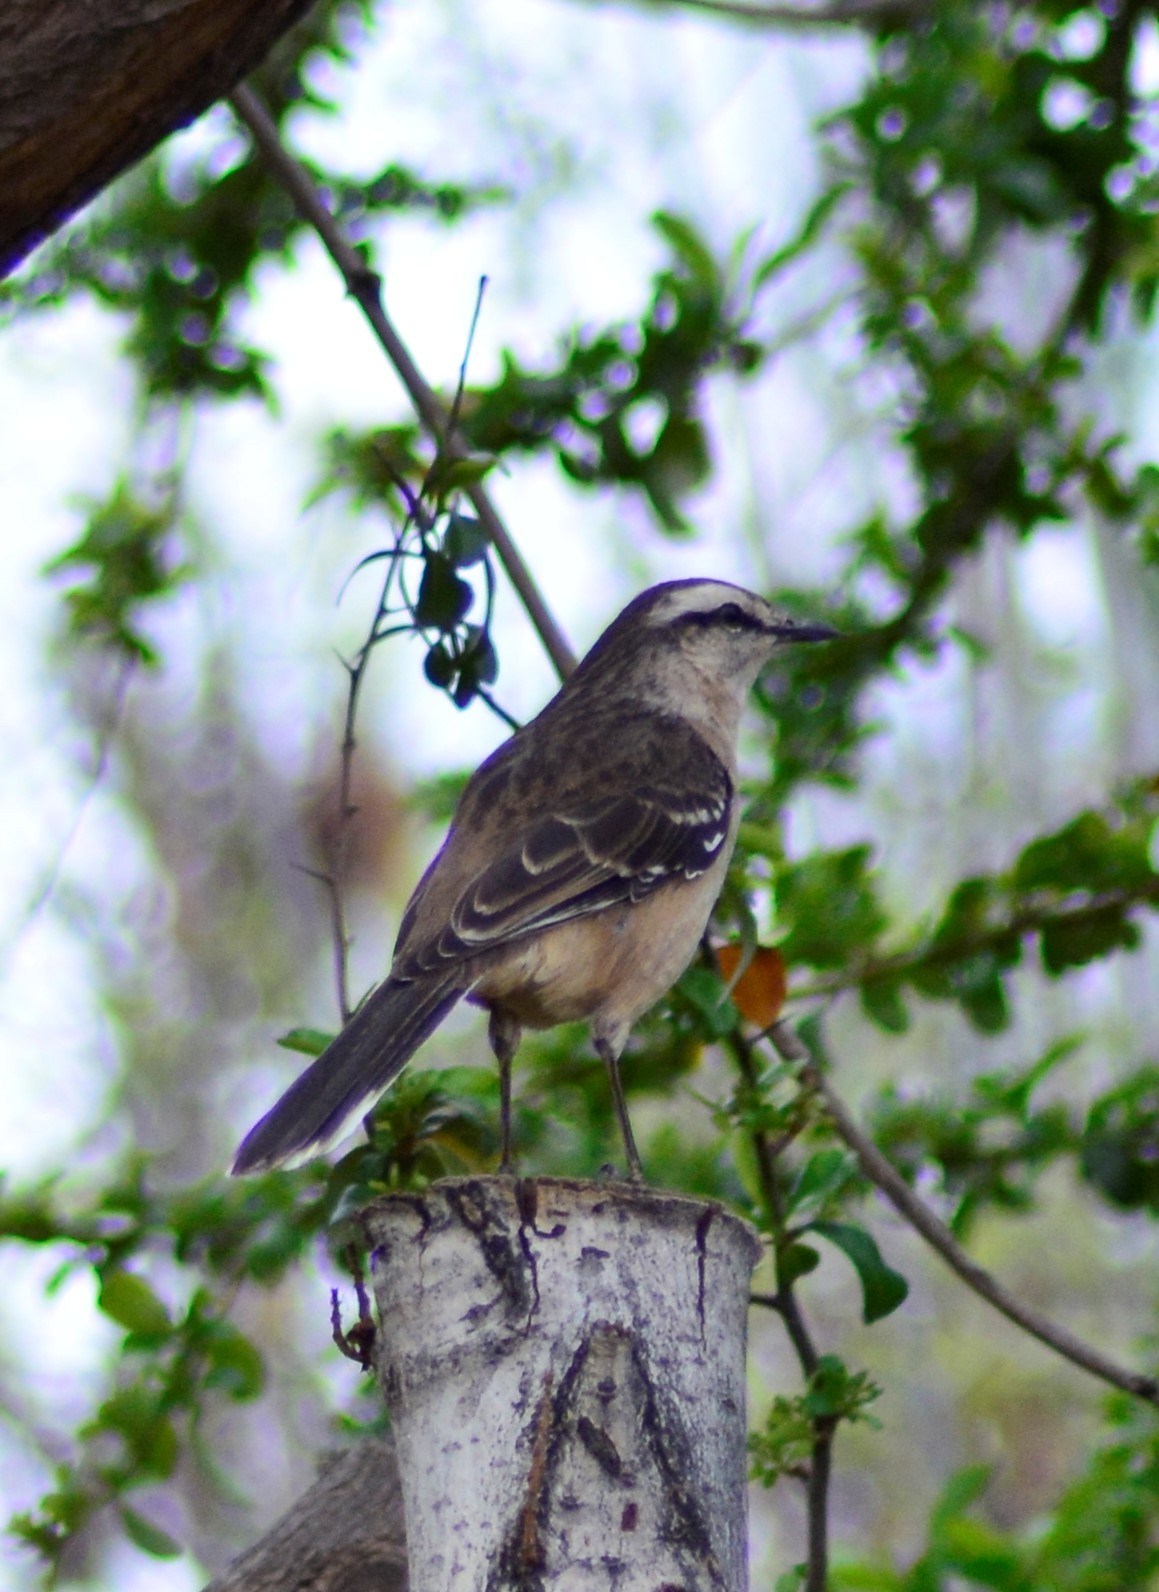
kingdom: Animalia
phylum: Chordata
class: Aves
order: Passeriformes
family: Mimidae
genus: Mimus
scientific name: Mimus saturninus
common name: Chalk-browed mockingbird
